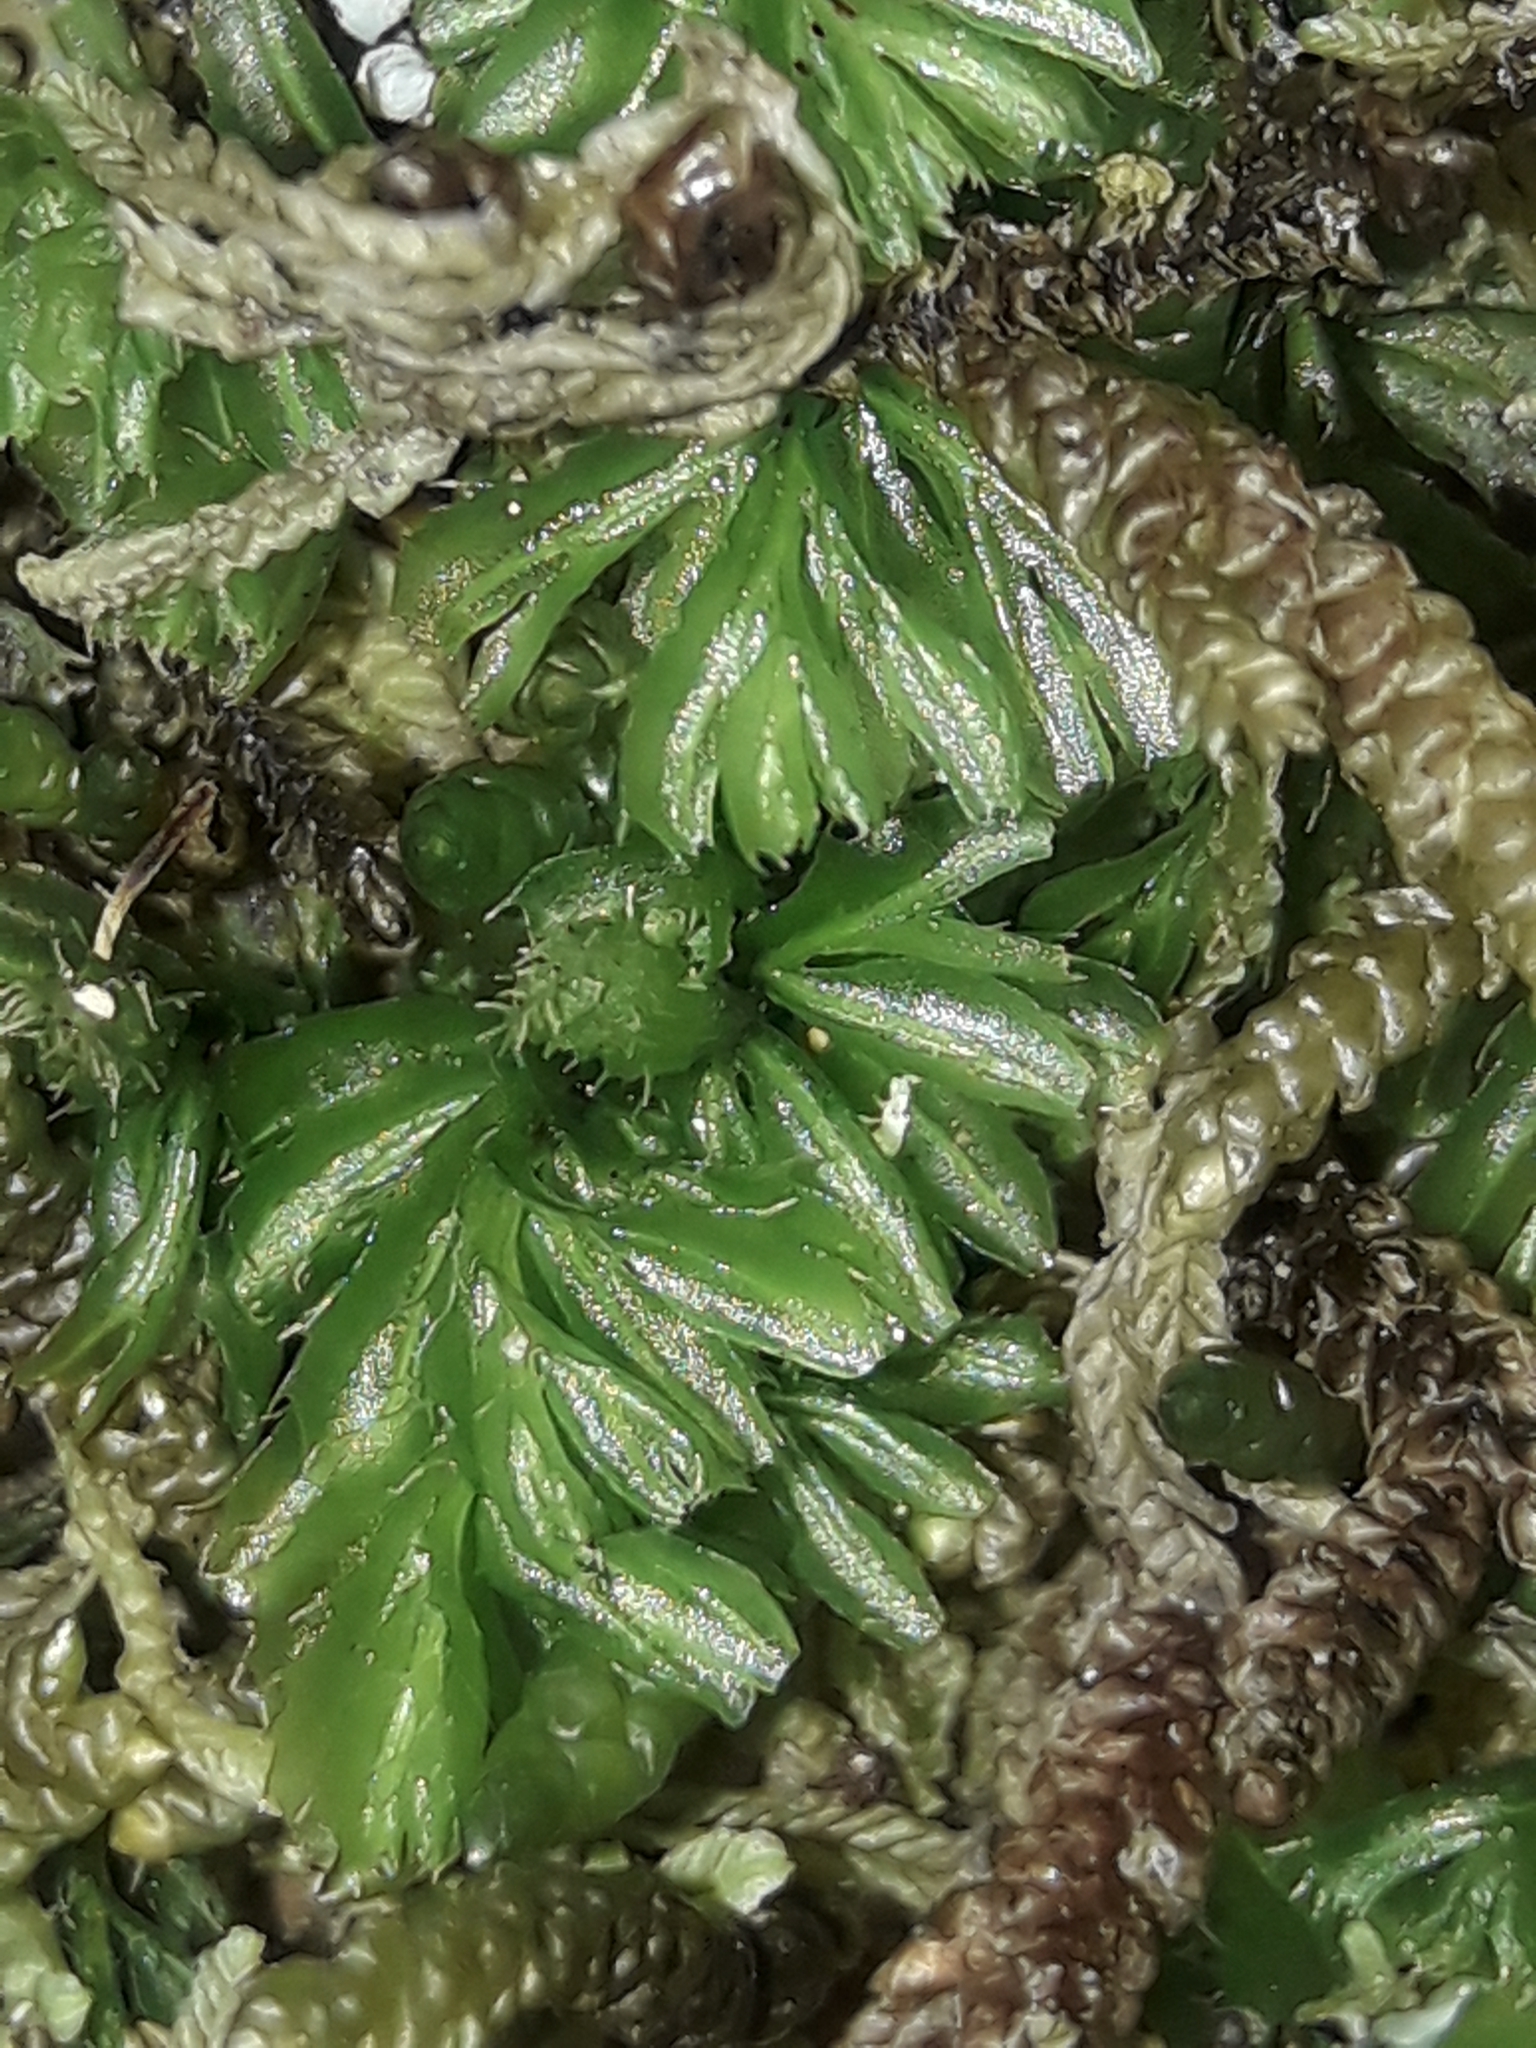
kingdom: Plantae
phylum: Tracheophyta
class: Polypodiopsida
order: Hymenophyllales
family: Hymenophyllaceae
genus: Hymenophyllum
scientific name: Hymenophyllum minimum
